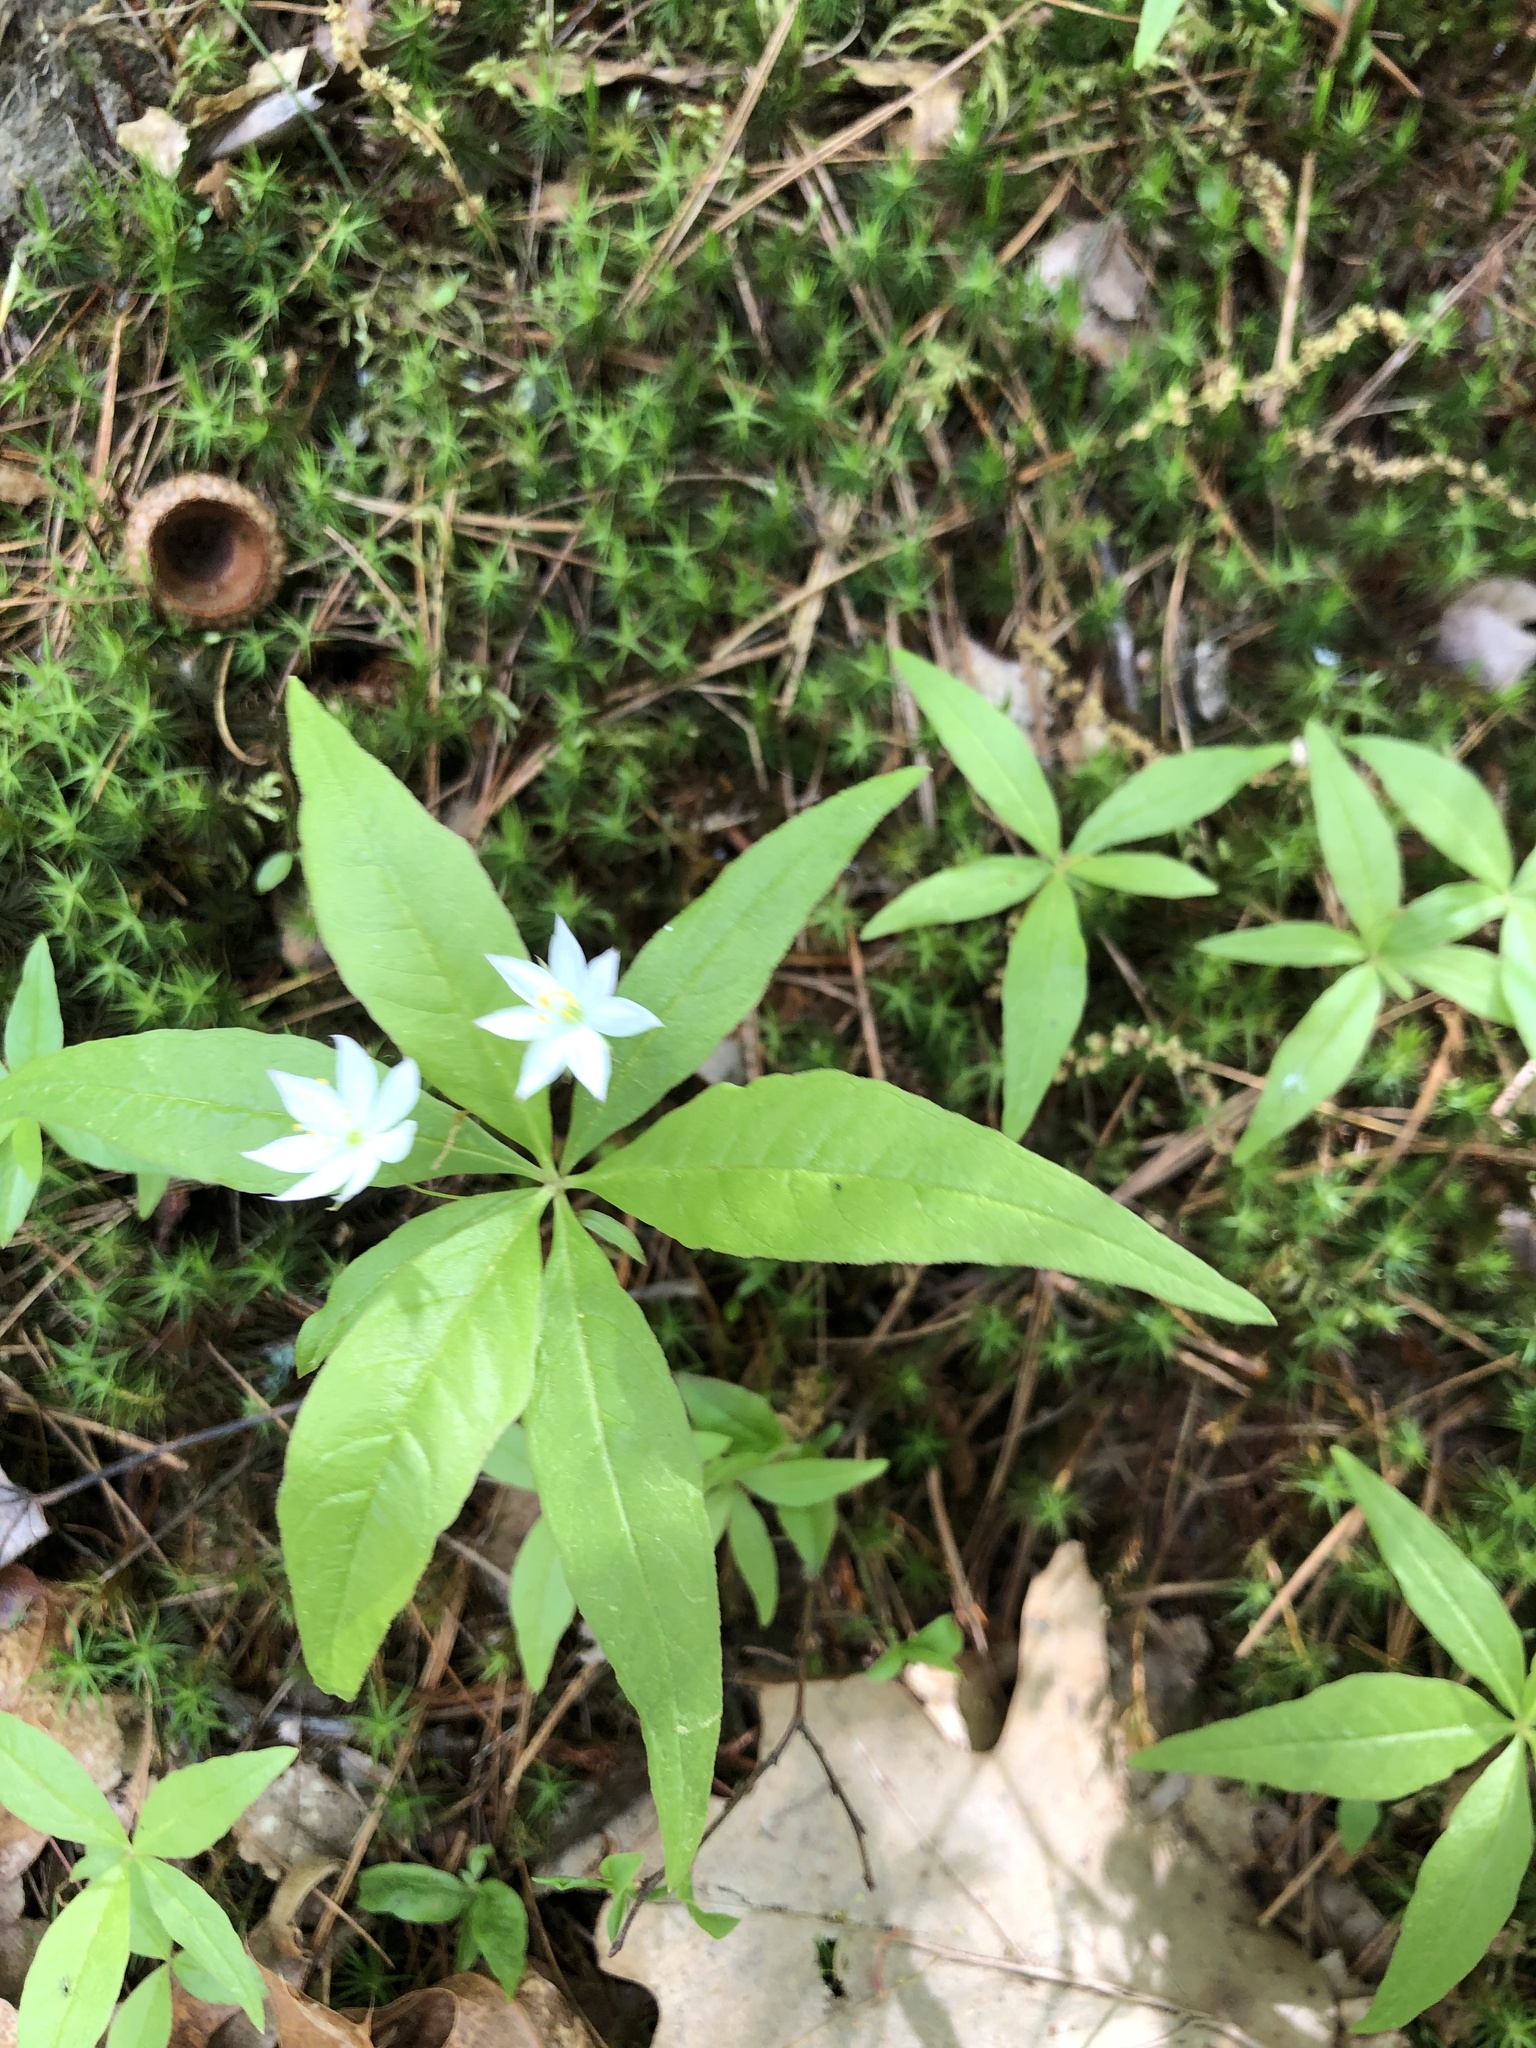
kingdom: Plantae
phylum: Tracheophyta
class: Magnoliopsida
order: Ericales
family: Primulaceae
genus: Lysimachia
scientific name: Lysimachia borealis
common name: American starflower
